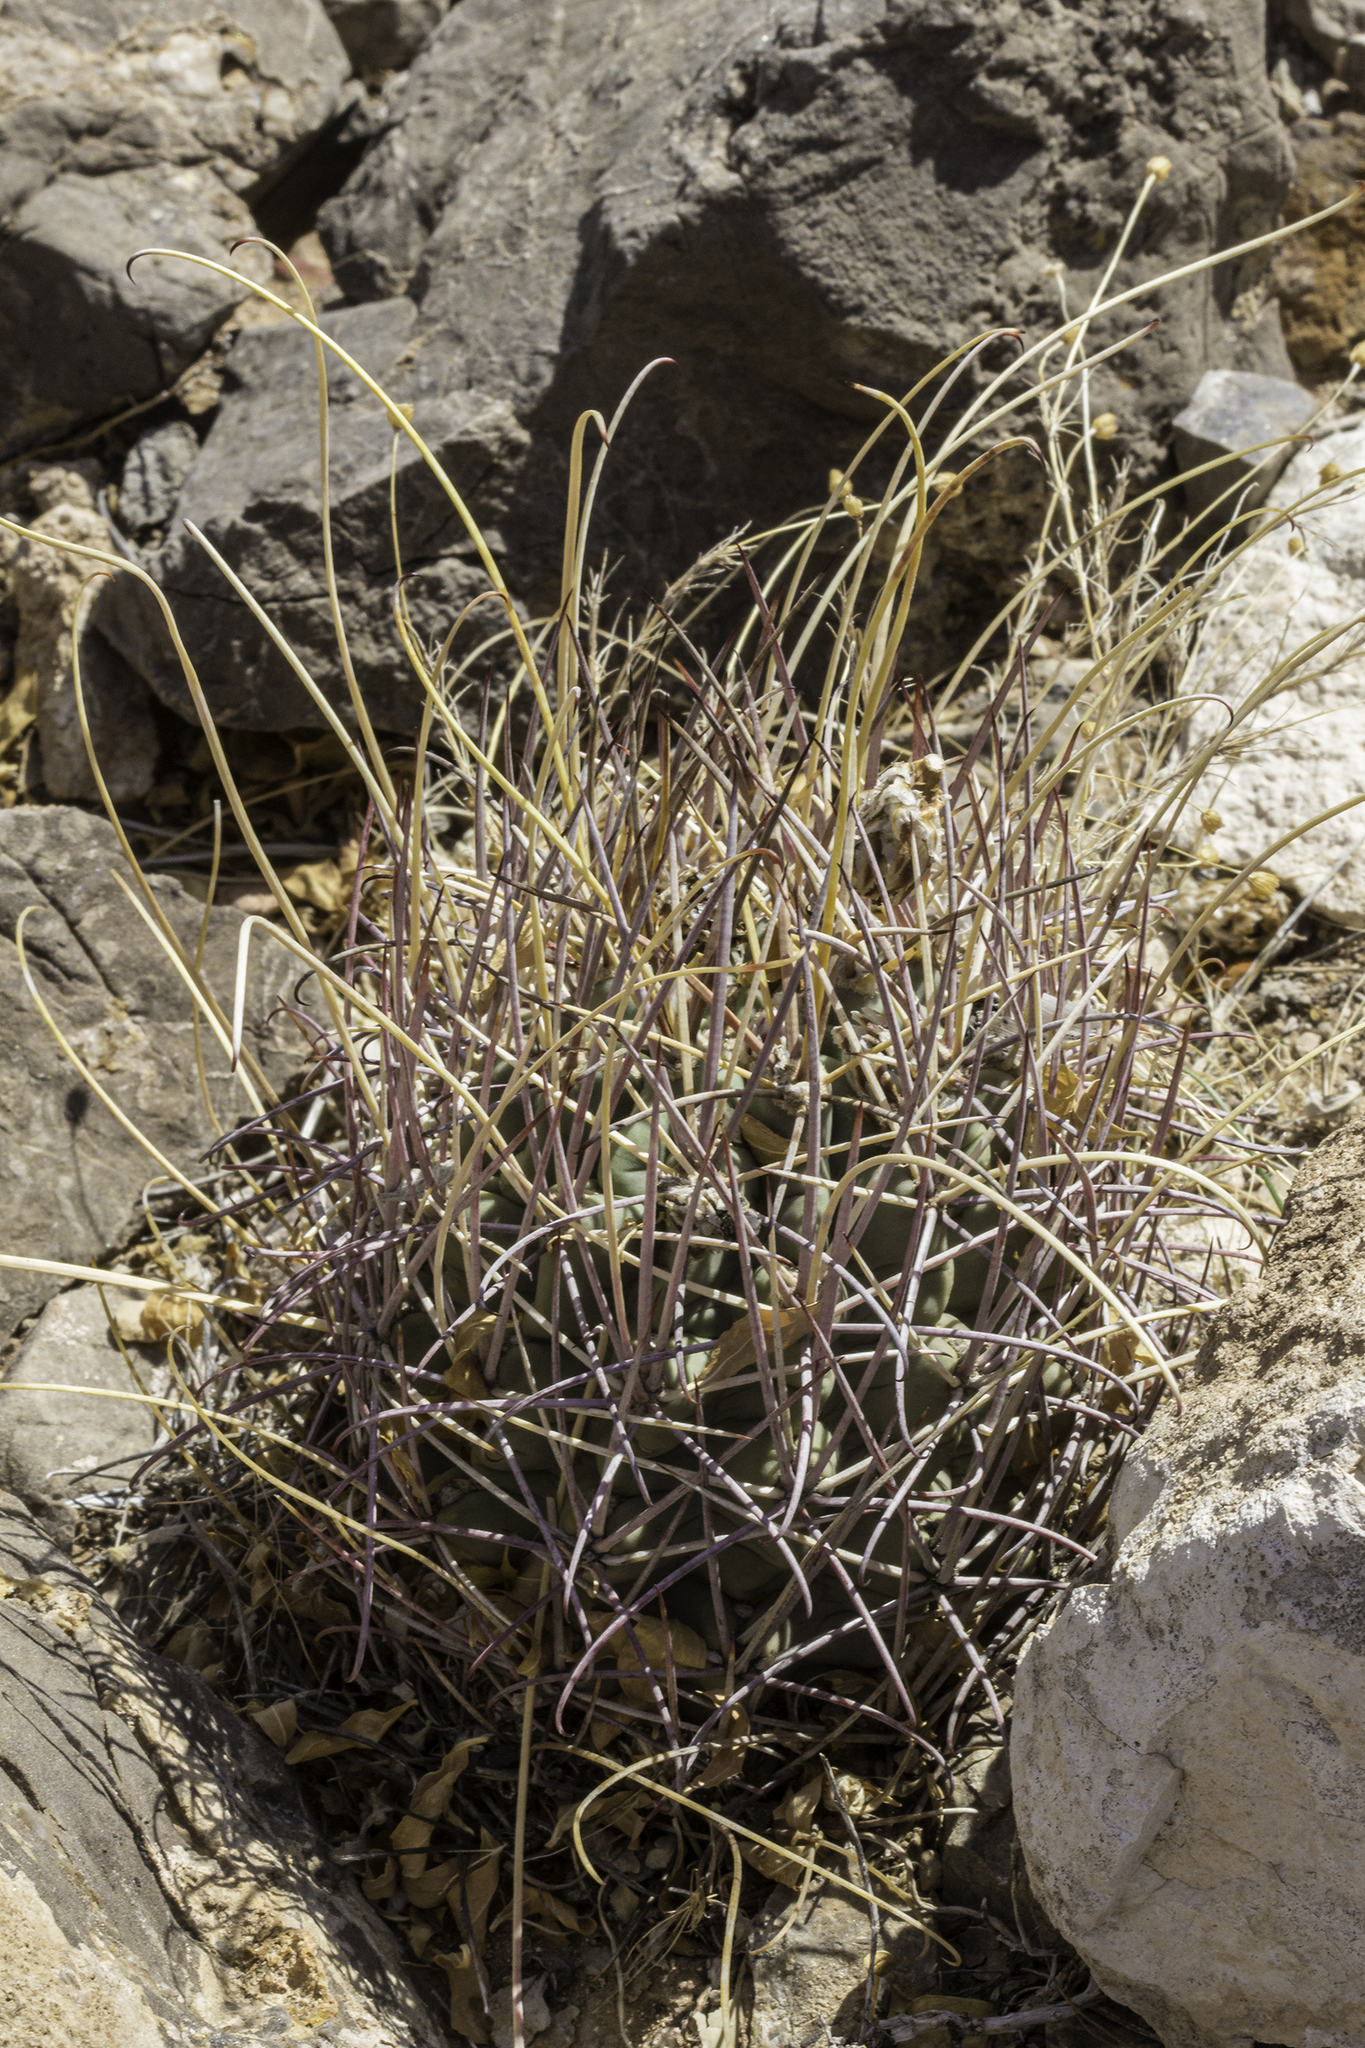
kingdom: Plantae
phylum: Tracheophyta
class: Magnoliopsida
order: Caryophyllales
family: Cactaceae
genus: Ferocactus
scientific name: Ferocactus uncinatus
